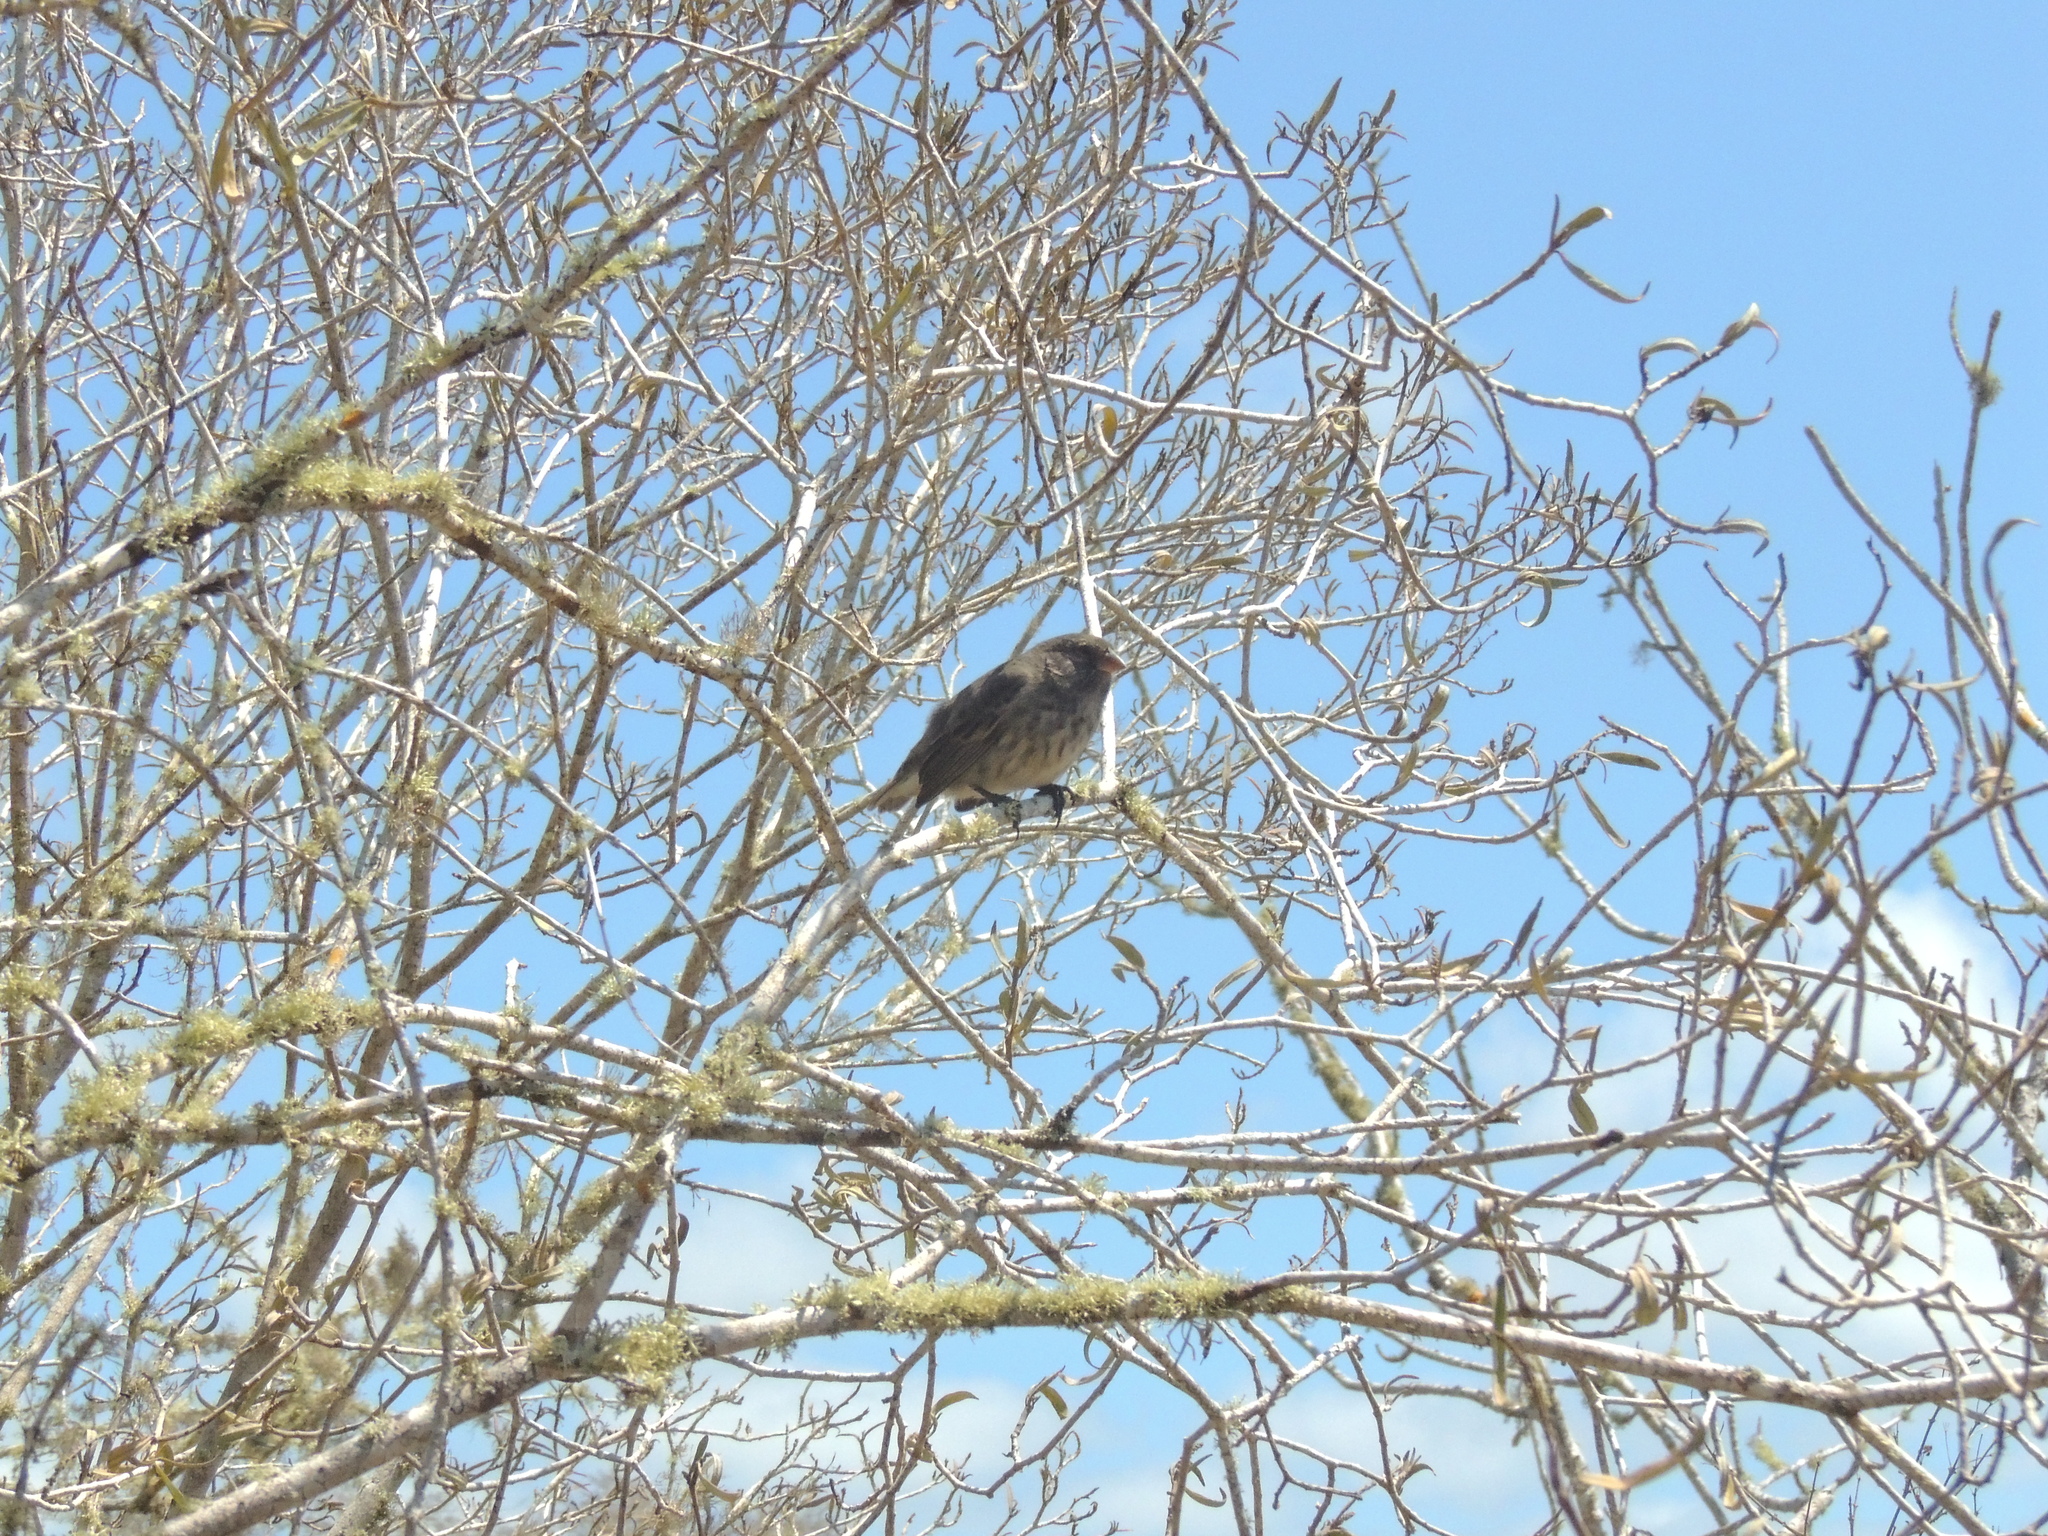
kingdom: Animalia
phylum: Chordata
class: Aves
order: Passeriformes
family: Thraupidae
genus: Geospiza
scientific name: Geospiza fuliginosa
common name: Small ground finch
